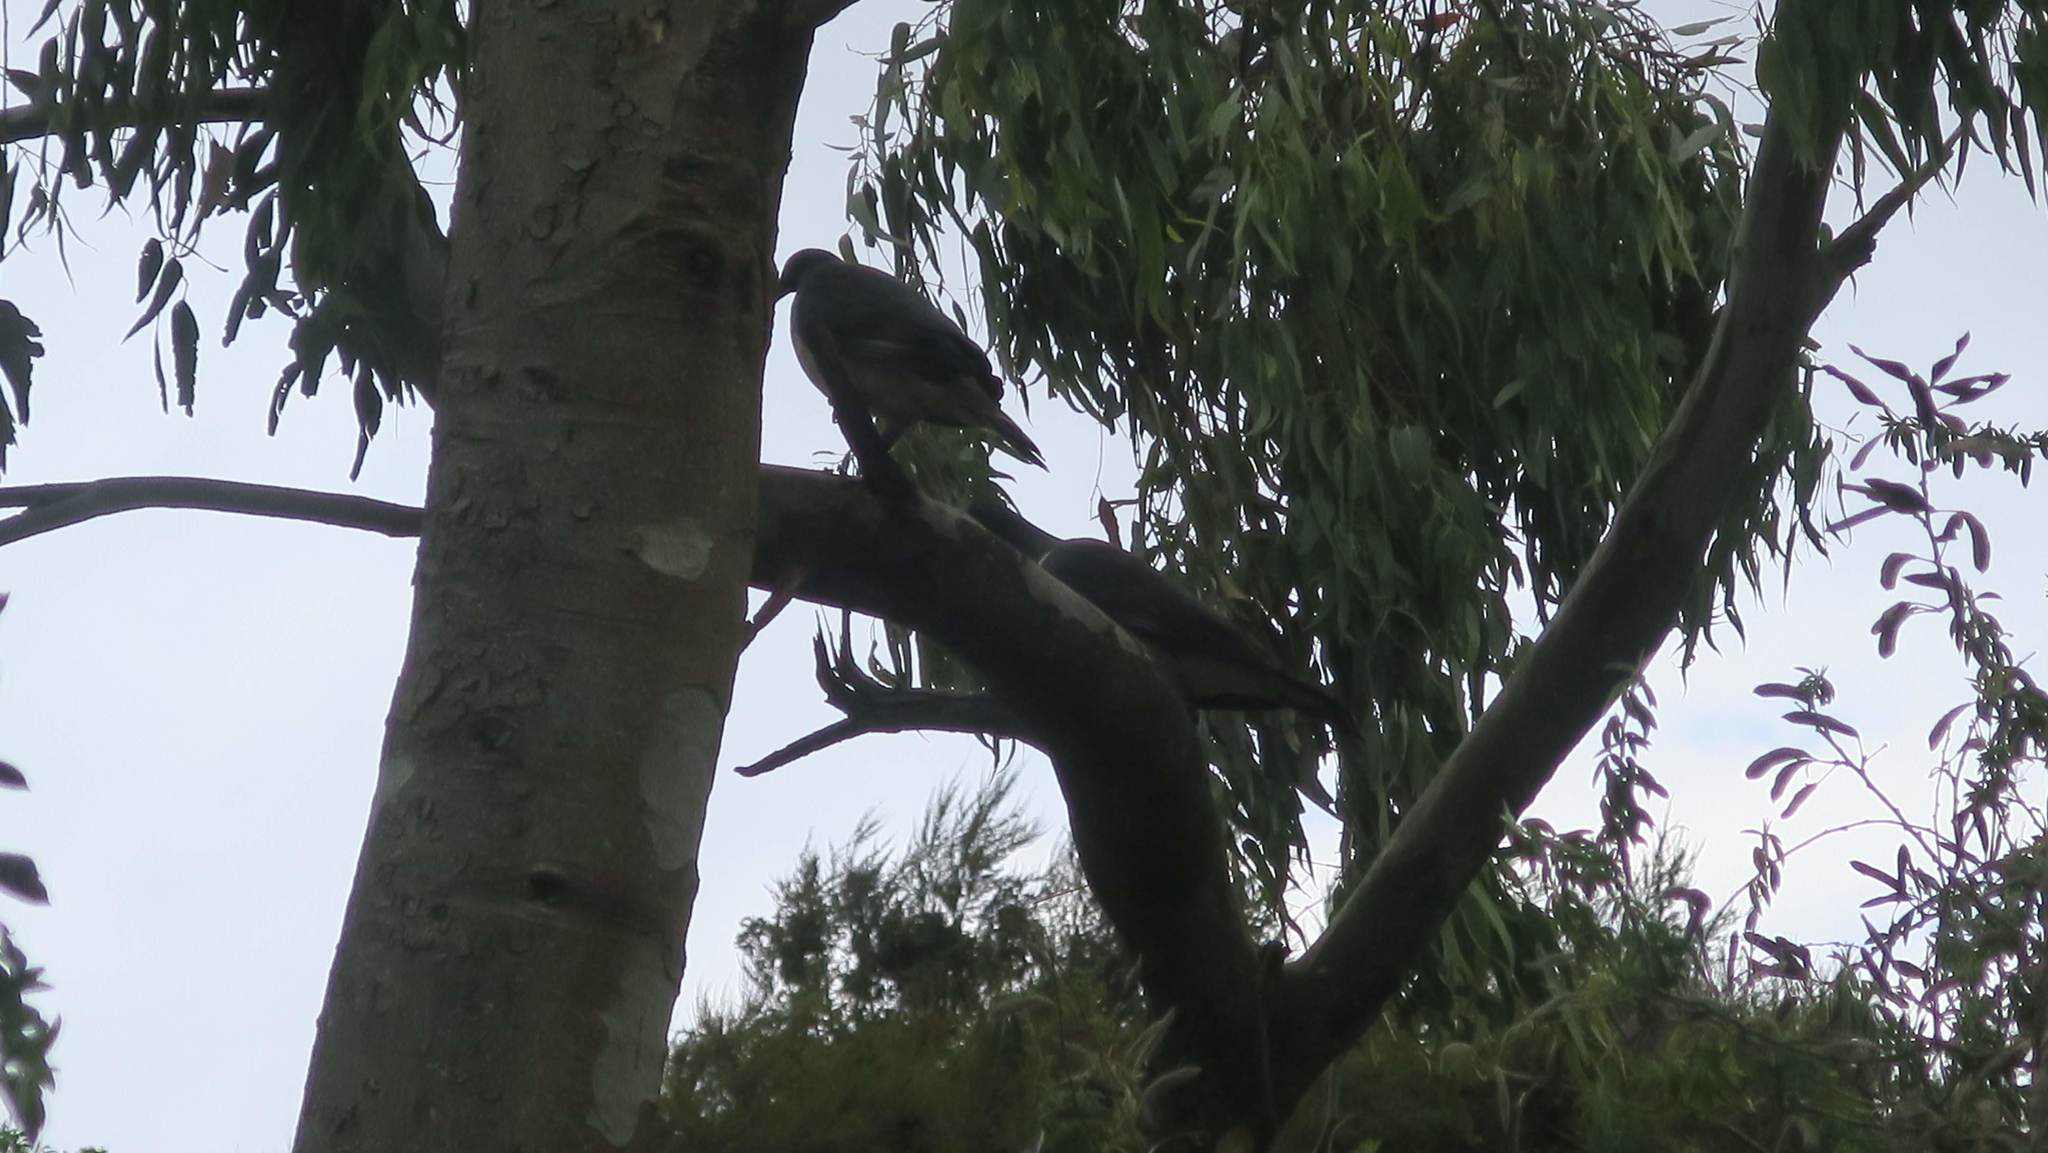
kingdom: Animalia
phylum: Chordata
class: Aves
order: Columbiformes
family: Columbidae
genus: Hemiphaga
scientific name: Hemiphaga novaeseelandiae
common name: New zealand pigeon
